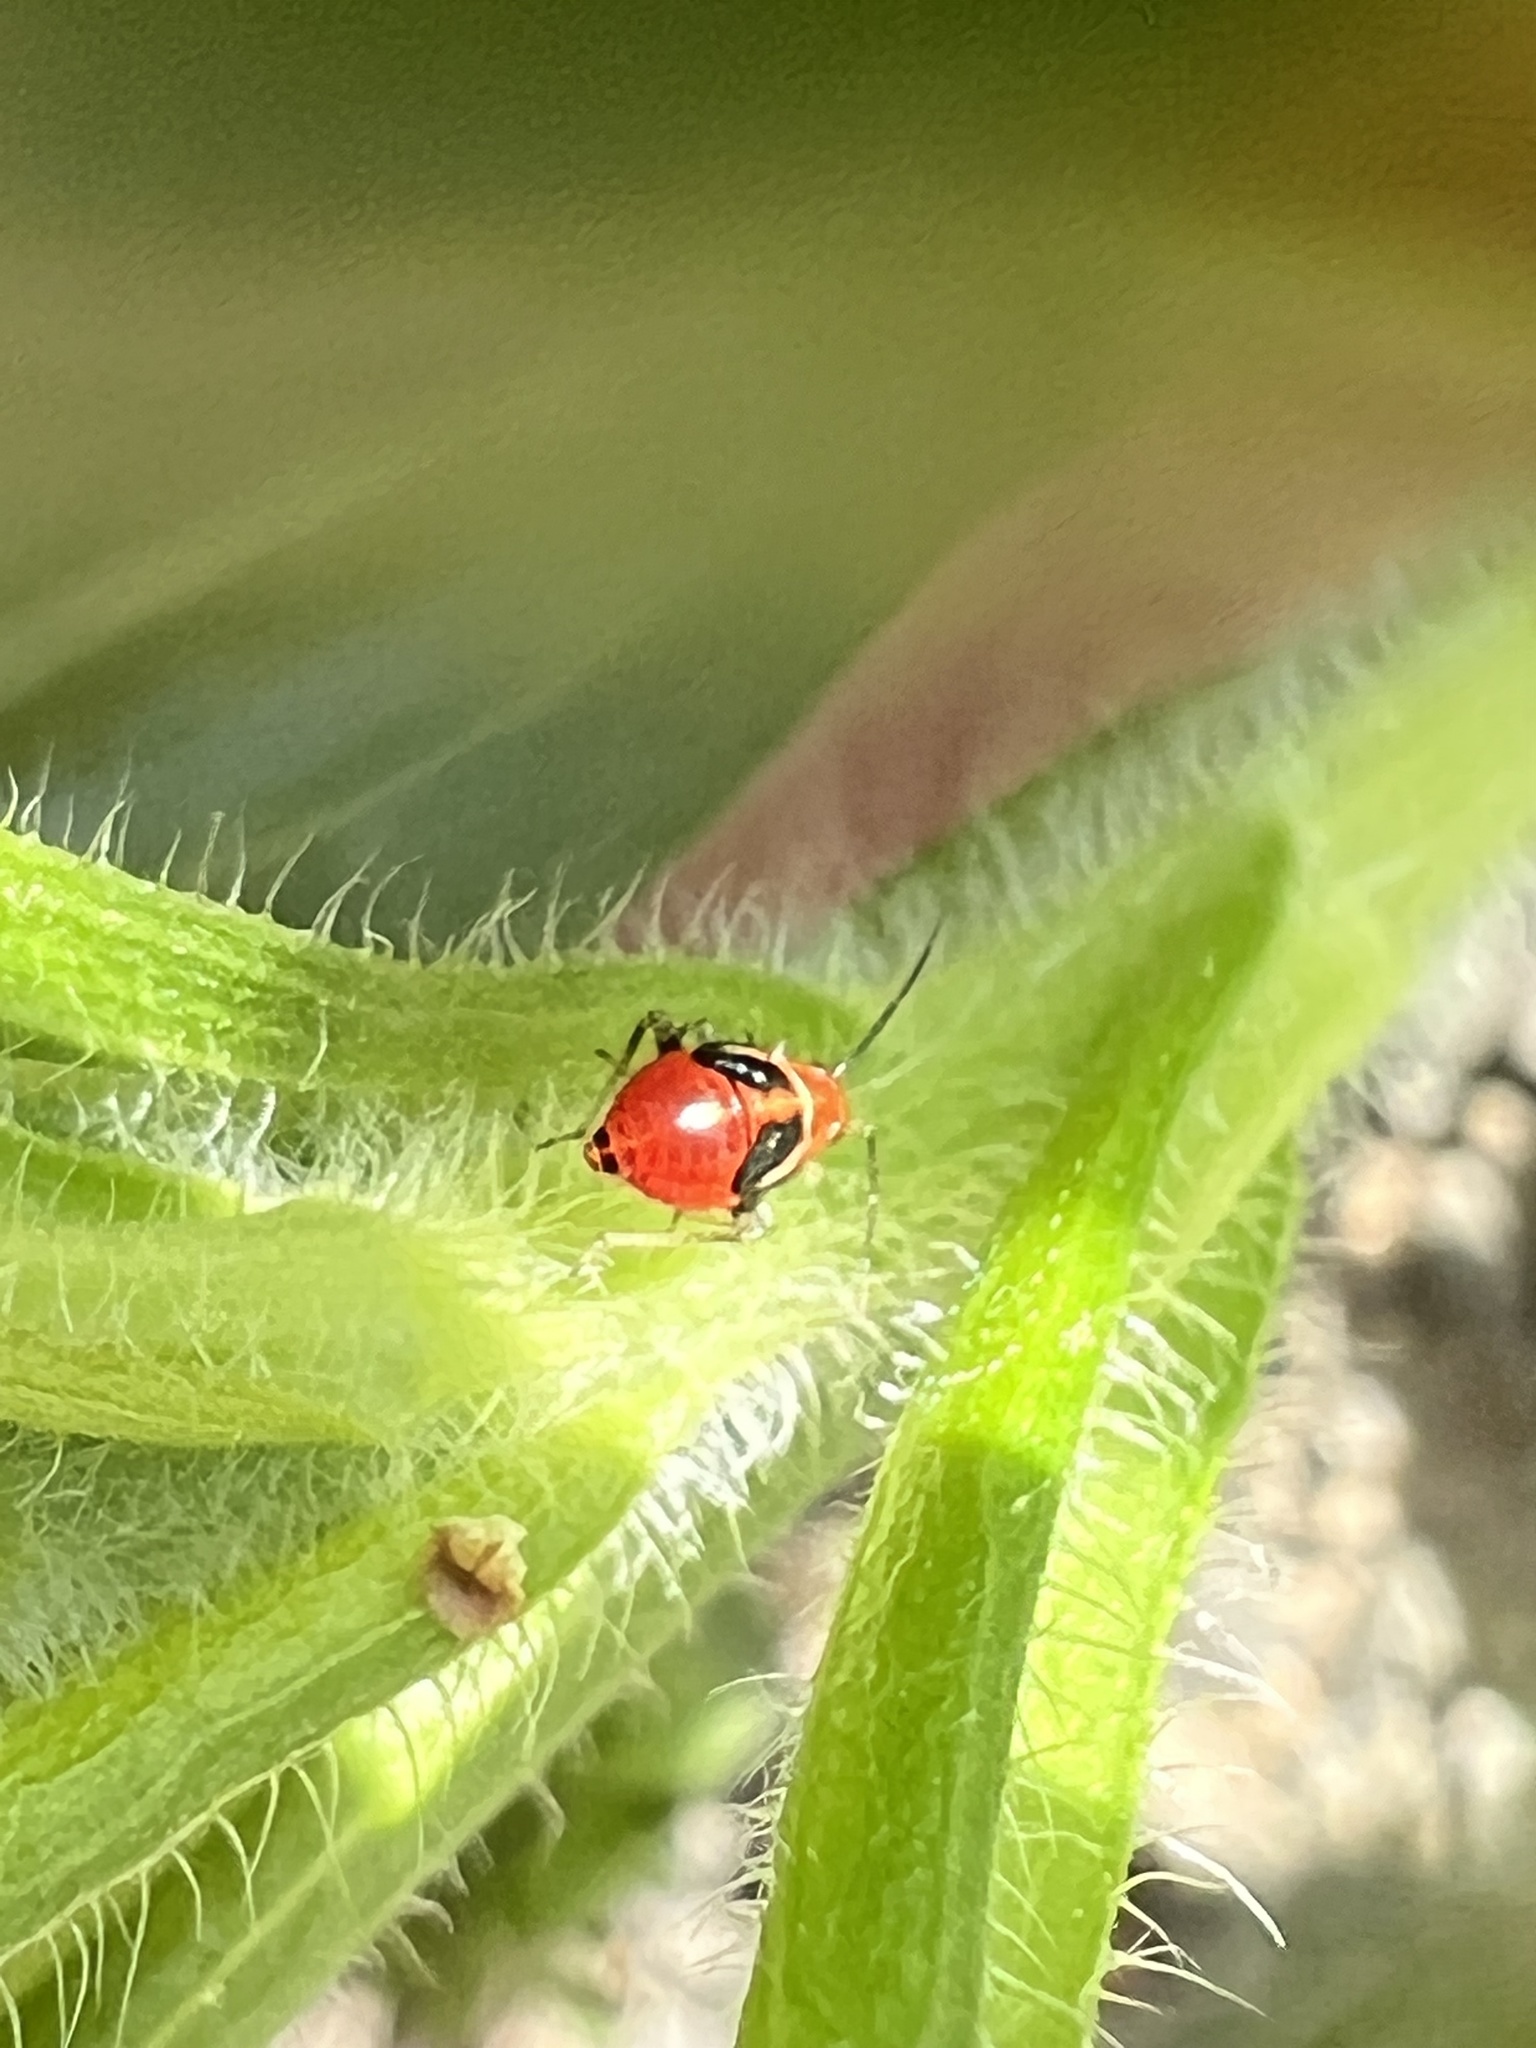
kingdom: Animalia
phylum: Arthropoda
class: Insecta
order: Hemiptera
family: Miridae
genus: Poecilocapsus
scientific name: Poecilocapsus lineatus
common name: Four-lined plant bug
